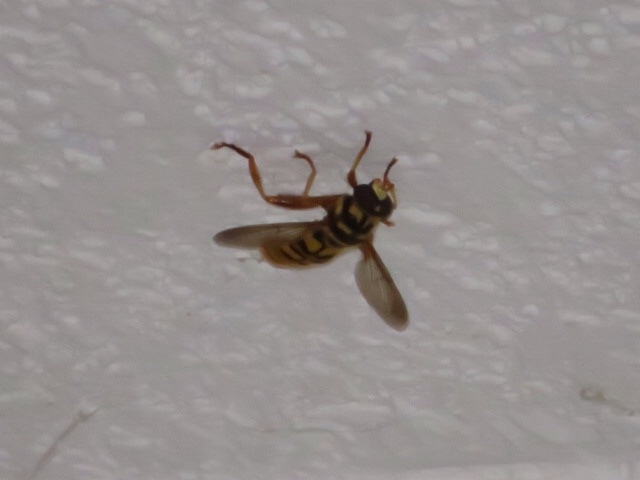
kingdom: Animalia
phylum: Arthropoda
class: Insecta
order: Diptera
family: Syrphidae
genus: Milesia
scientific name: Milesia virginiensis
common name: Virginia giant
